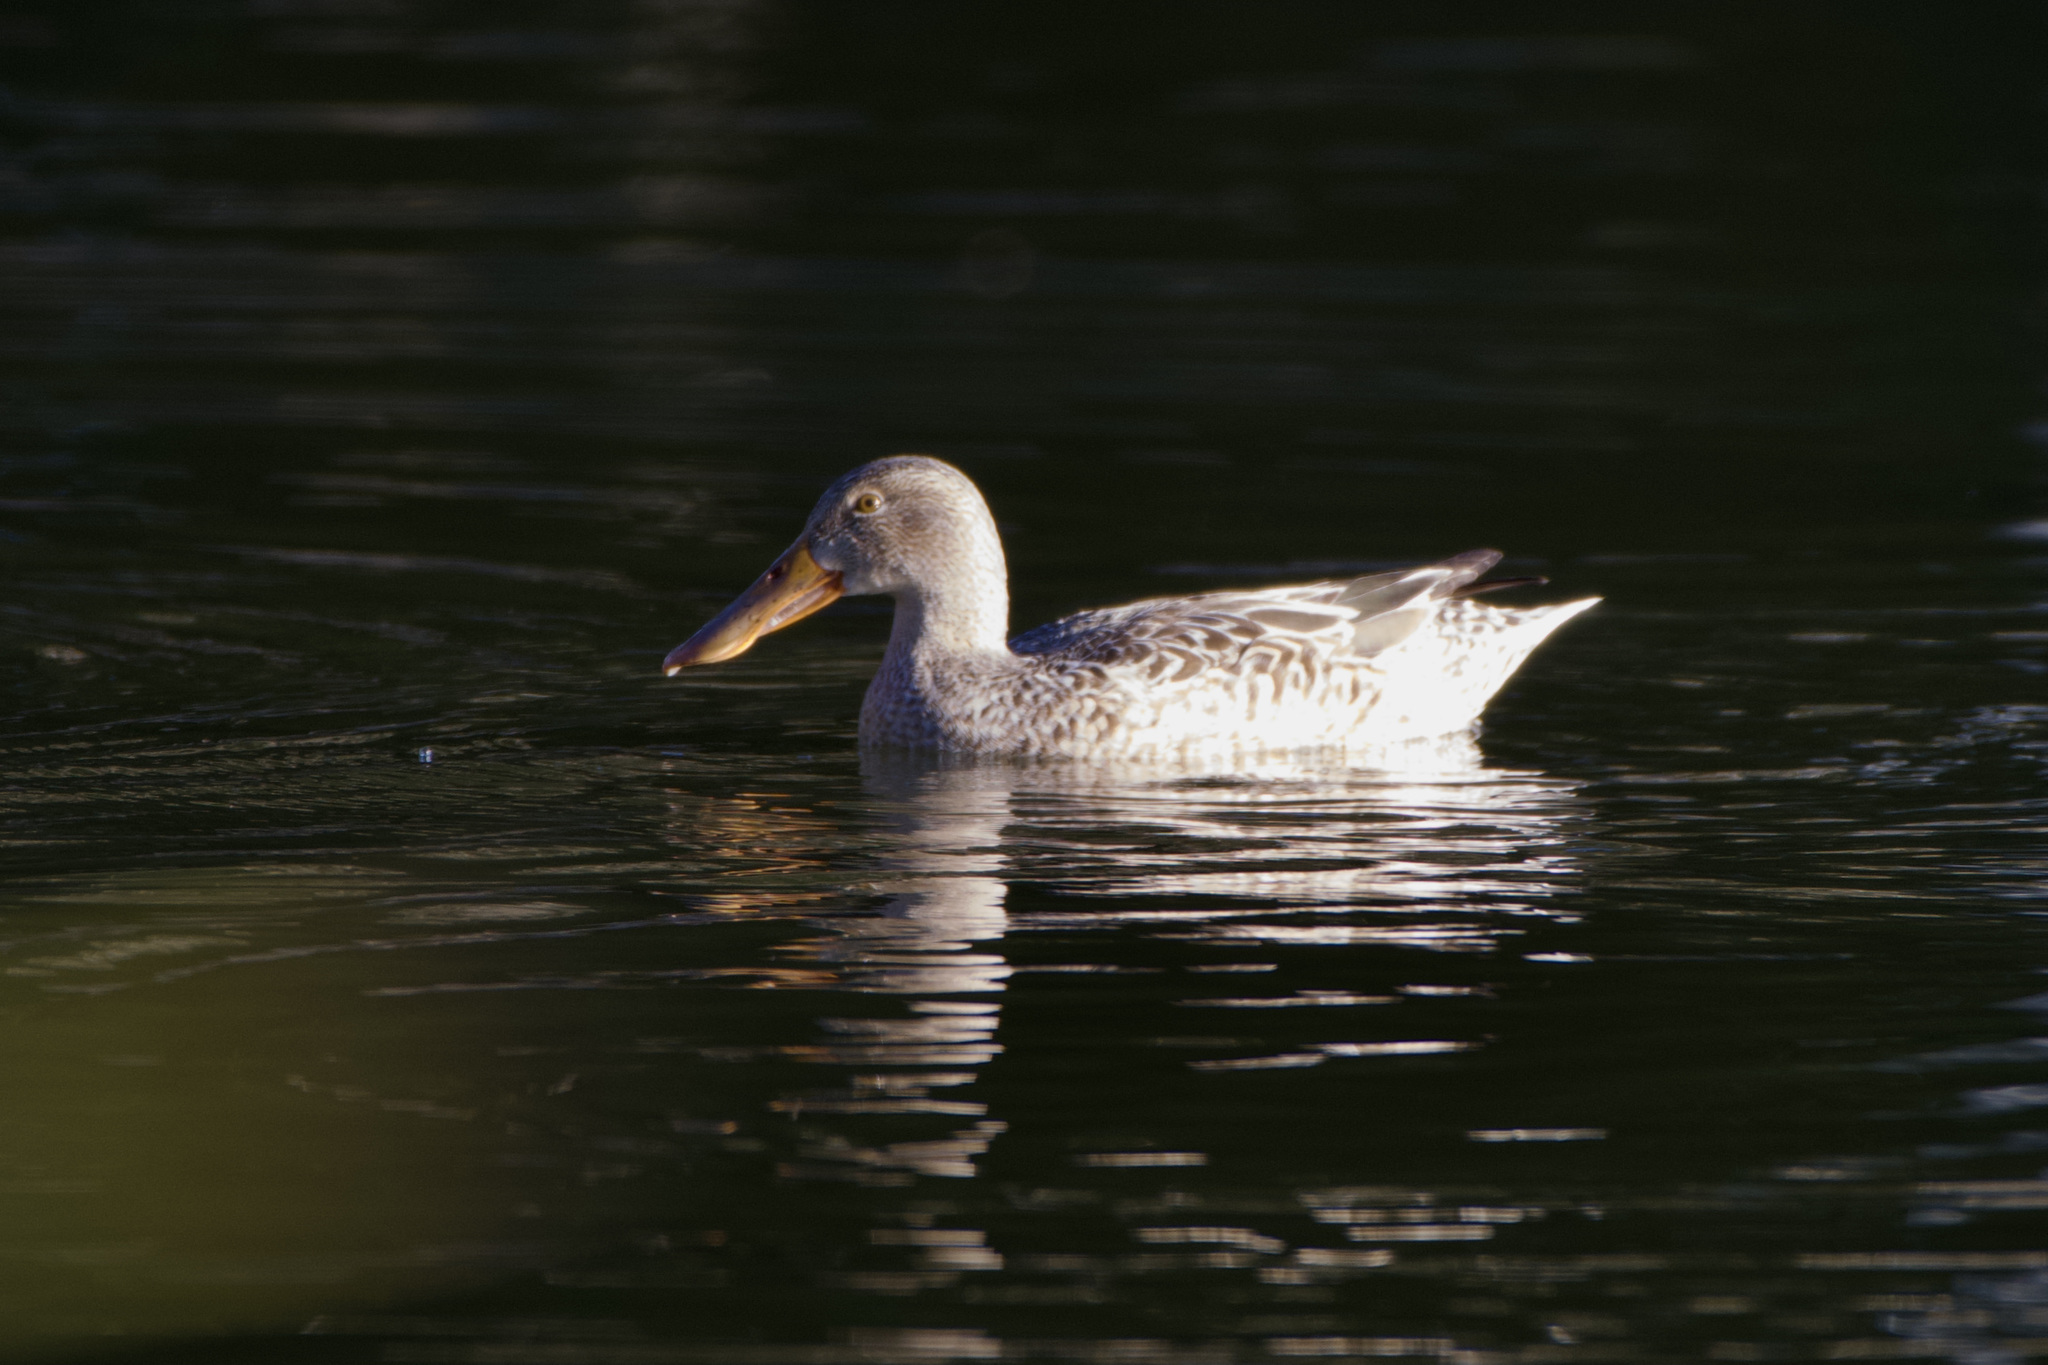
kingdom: Animalia
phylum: Chordata
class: Aves
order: Anseriformes
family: Anatidae
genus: Spatula
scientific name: Spatula clypeata
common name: Northern shoveler
